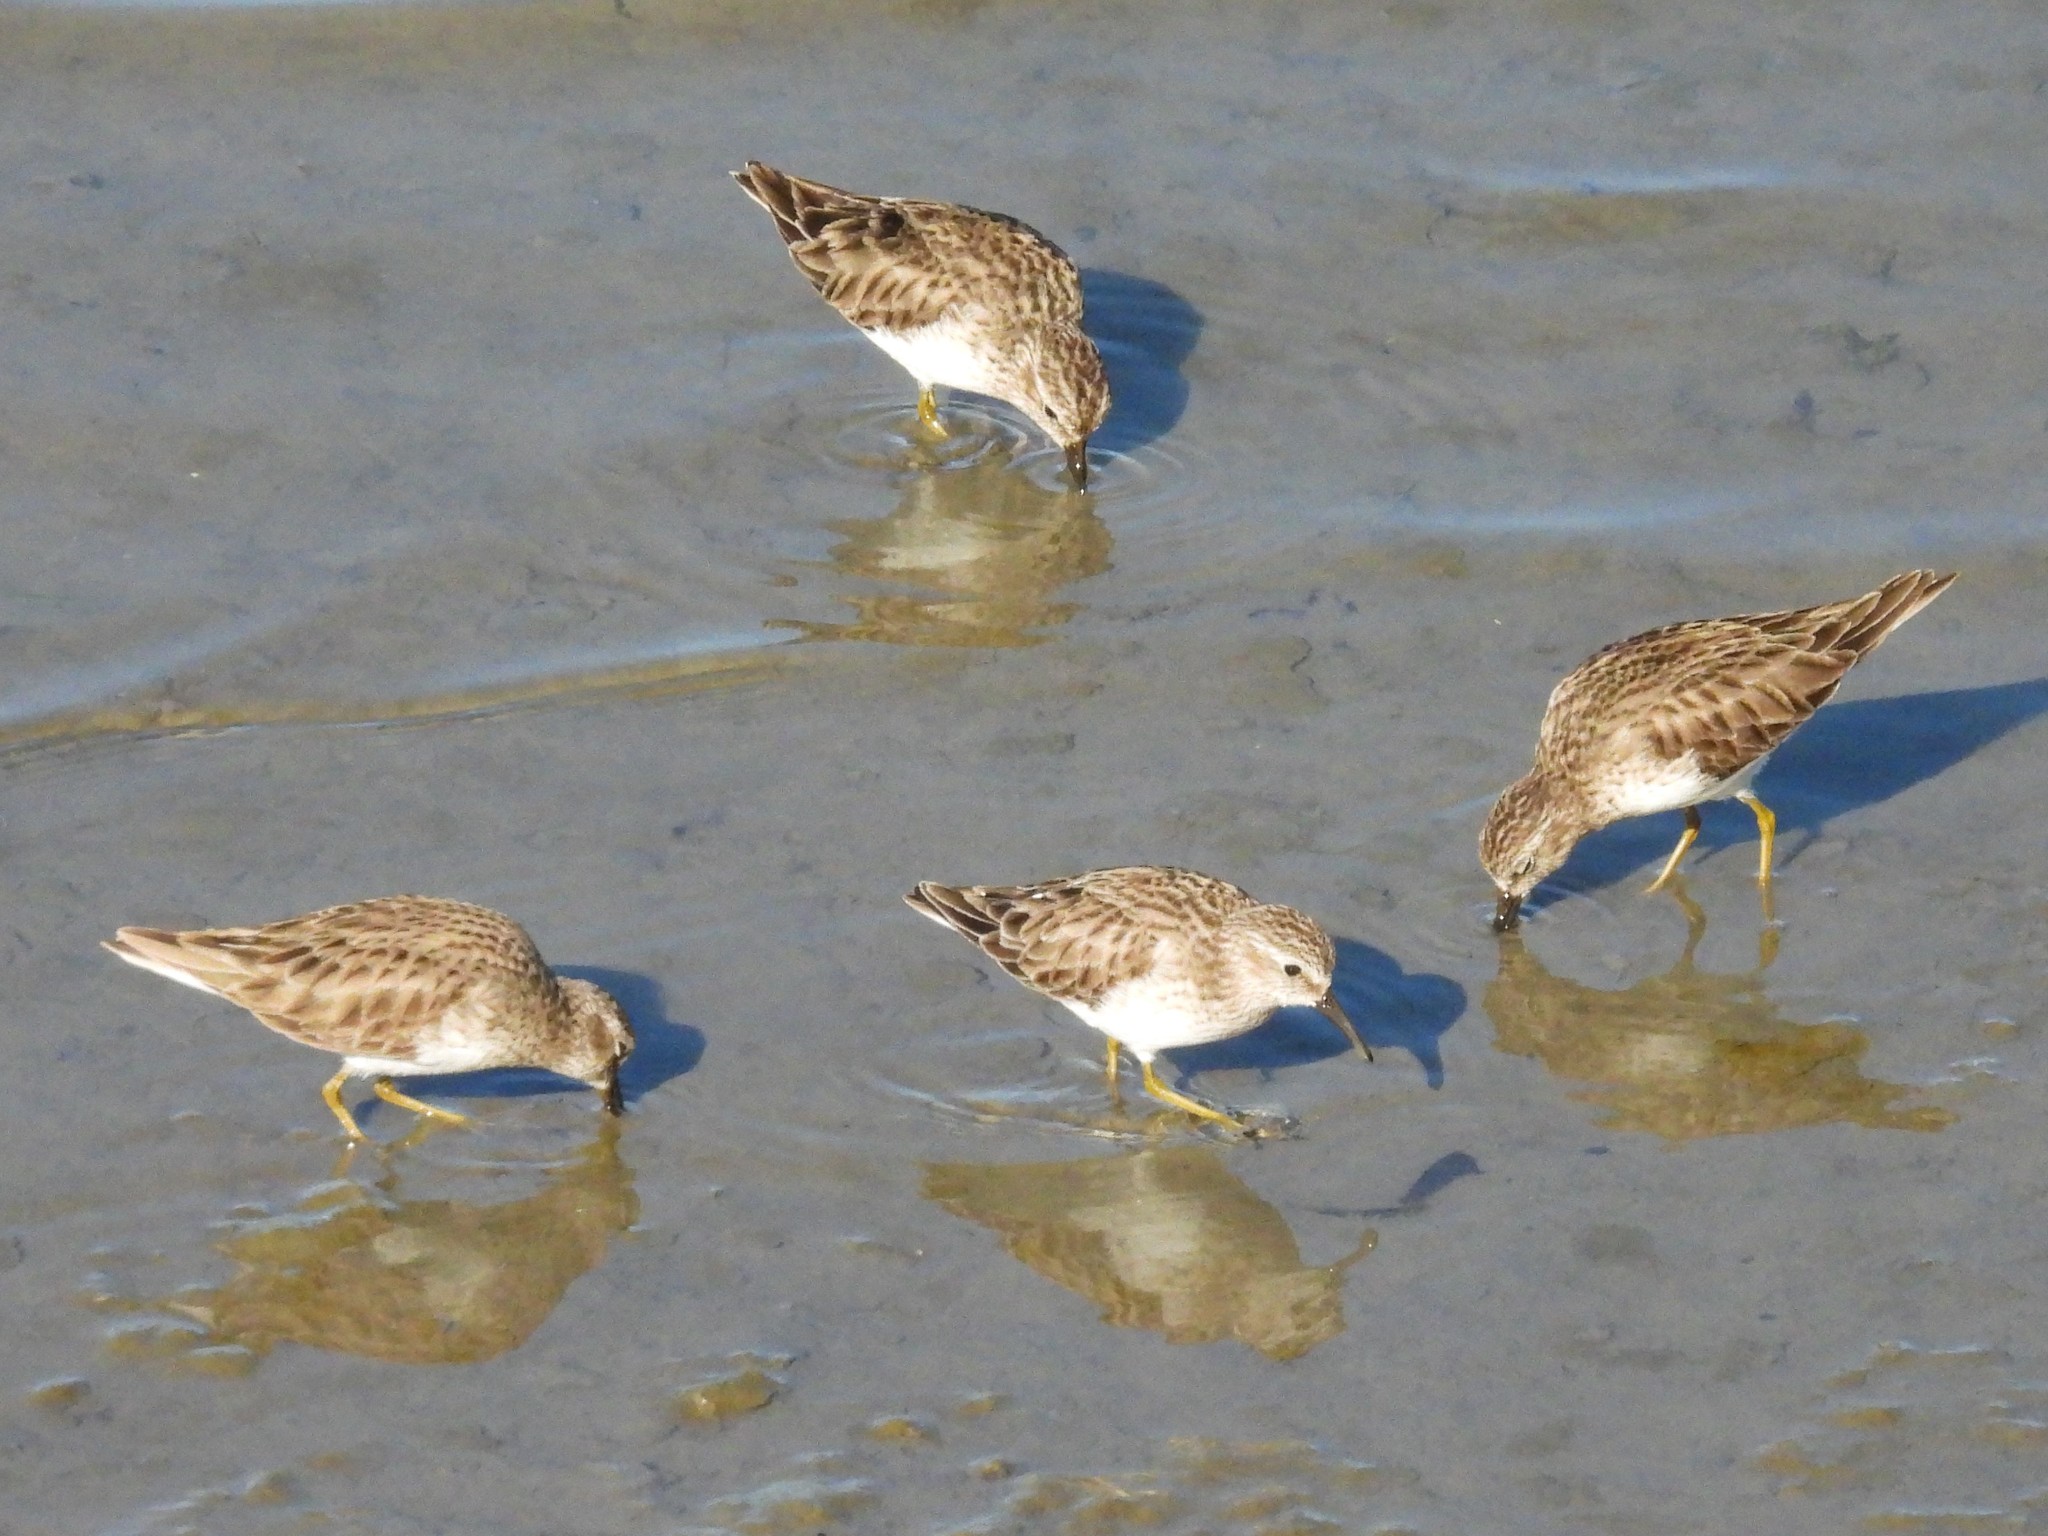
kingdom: Animalia
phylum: Chordata
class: Aves
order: Charadriiformes
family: Scolopacidae
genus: Calidris
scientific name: Calidris minutilla
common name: Least sandpiper
